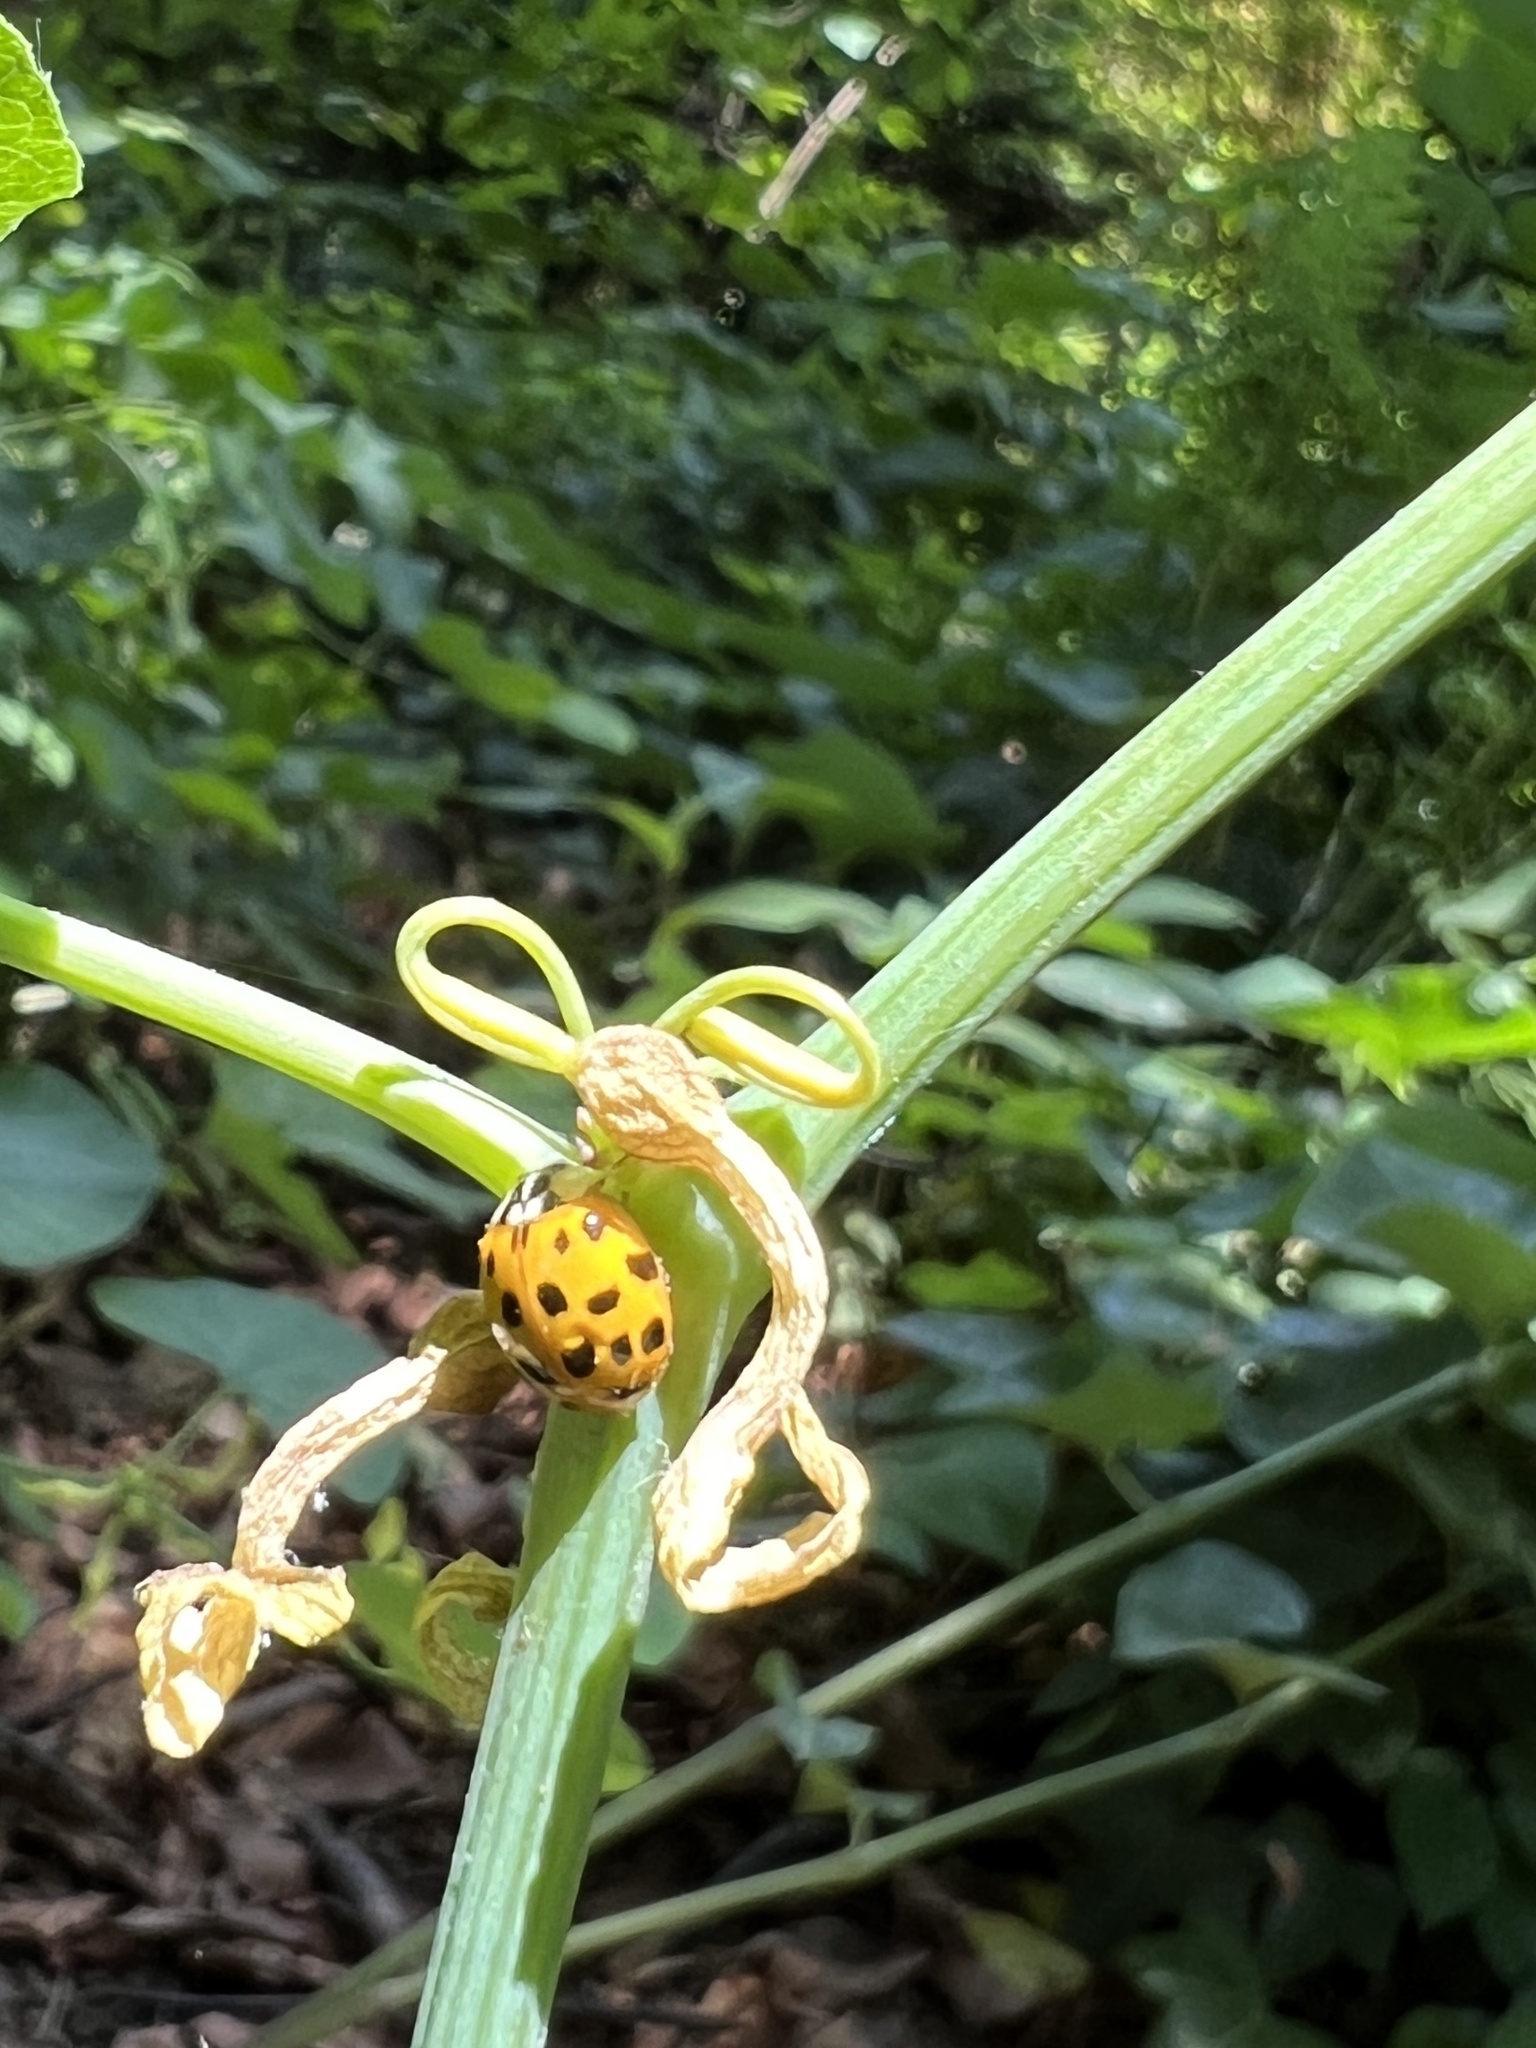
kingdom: Animalia
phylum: Arthropoda
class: Insecta
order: Coleoptera
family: Coccinellidae
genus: Harmonia
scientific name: Harmonia axyridis
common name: Harlequin ladybird
